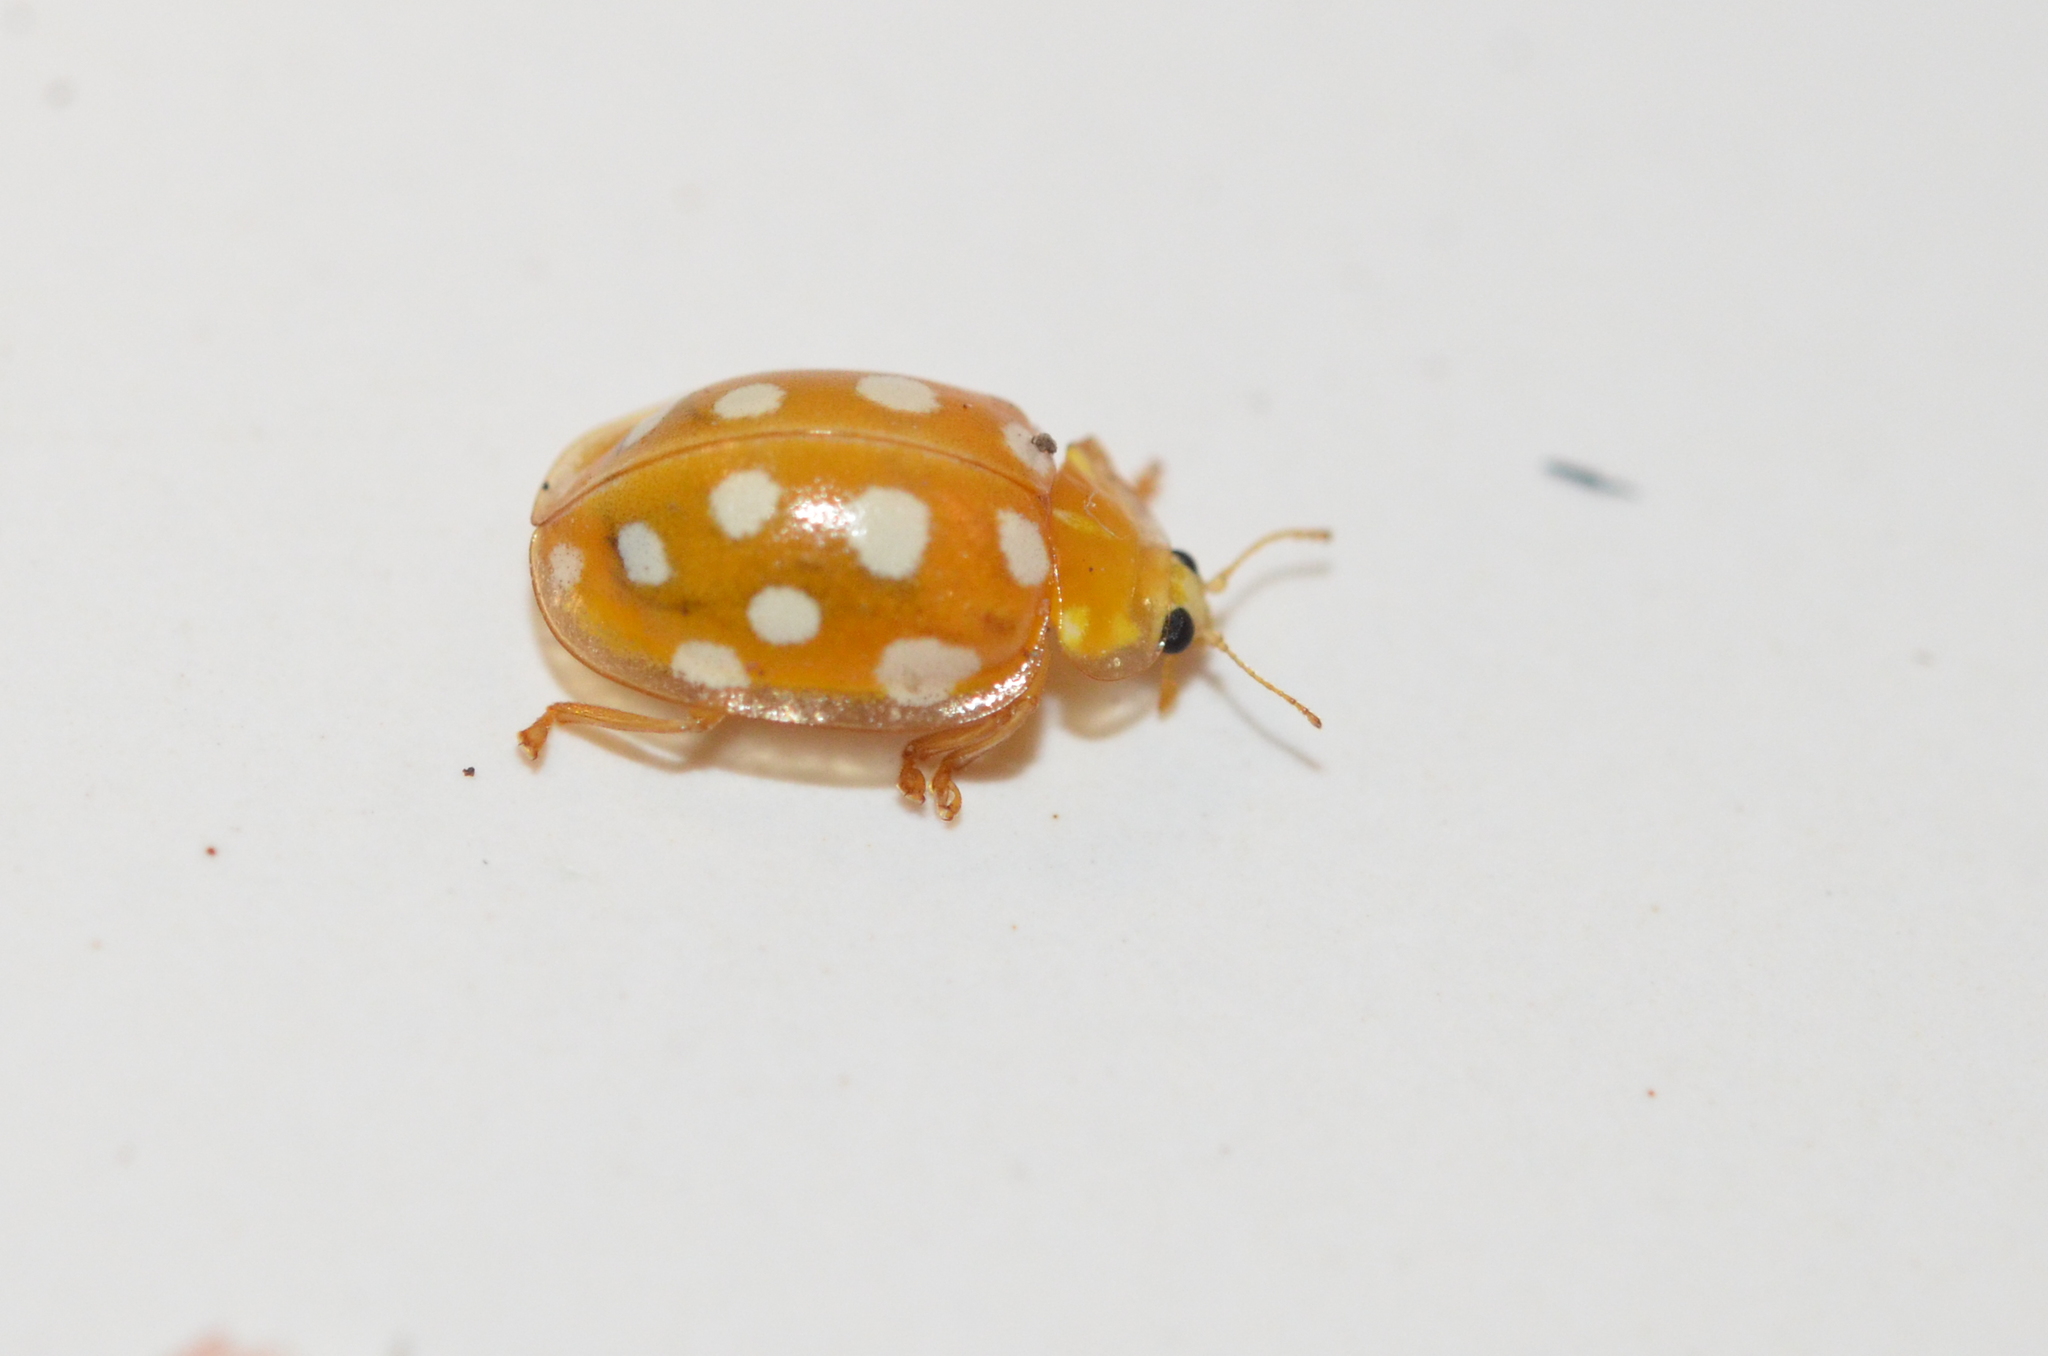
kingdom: Animalia
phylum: Arthropoda
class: Insecta
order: Coleoptera
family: Coccinellidae
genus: Halyzia
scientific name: Halyzia sedecimguttata
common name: Orange ladybird
